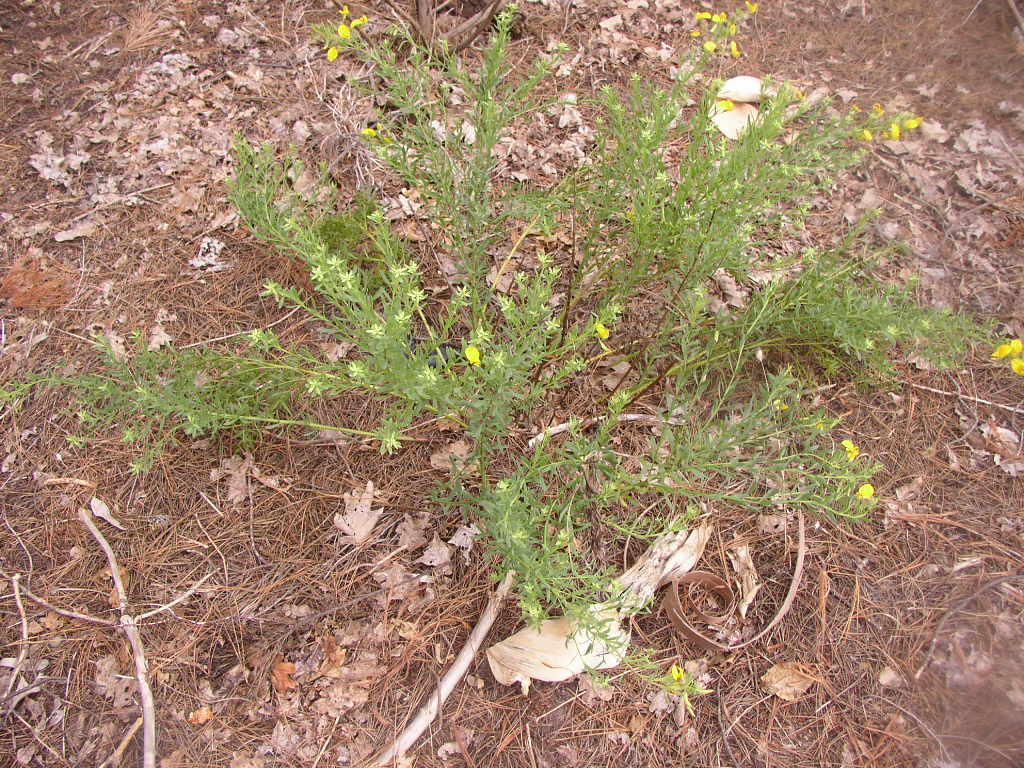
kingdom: Plantae
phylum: Tracheophyta
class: Magnoliopsida
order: Fabales
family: Fabaceae
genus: Rafnia
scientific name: Rafnia capensis
